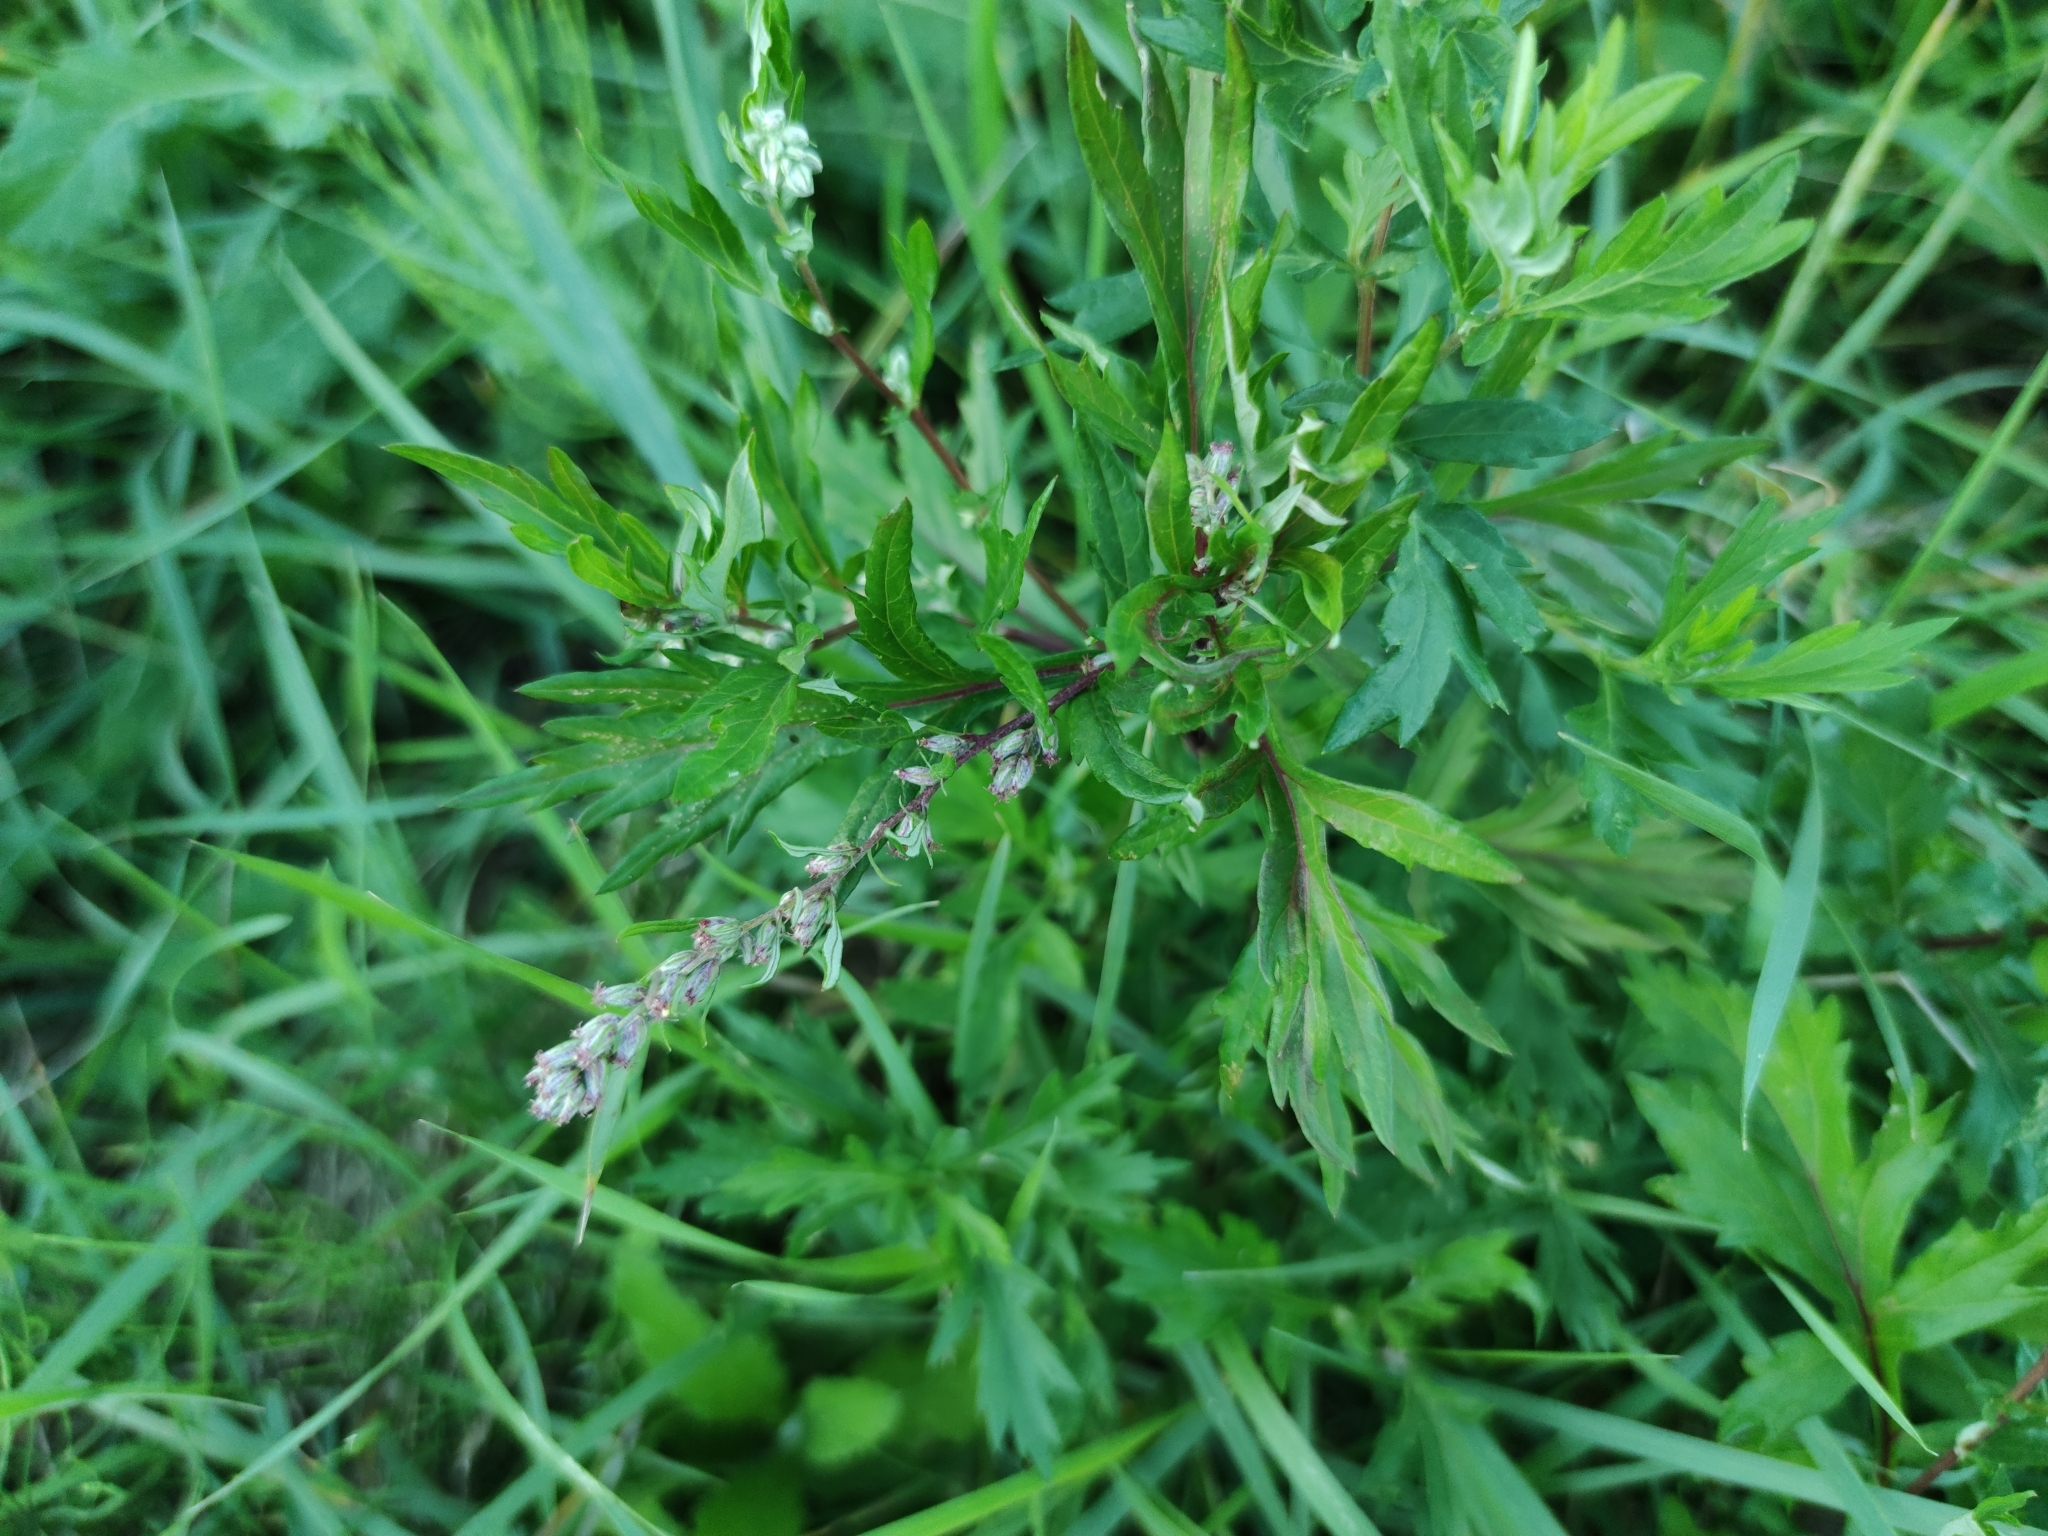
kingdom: Plantae
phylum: Tracheophyta
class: Magnoliopsida
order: Asterales
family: Asteraceae
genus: Artemisia
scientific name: Artemisia vulgaris
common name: Mugwort
